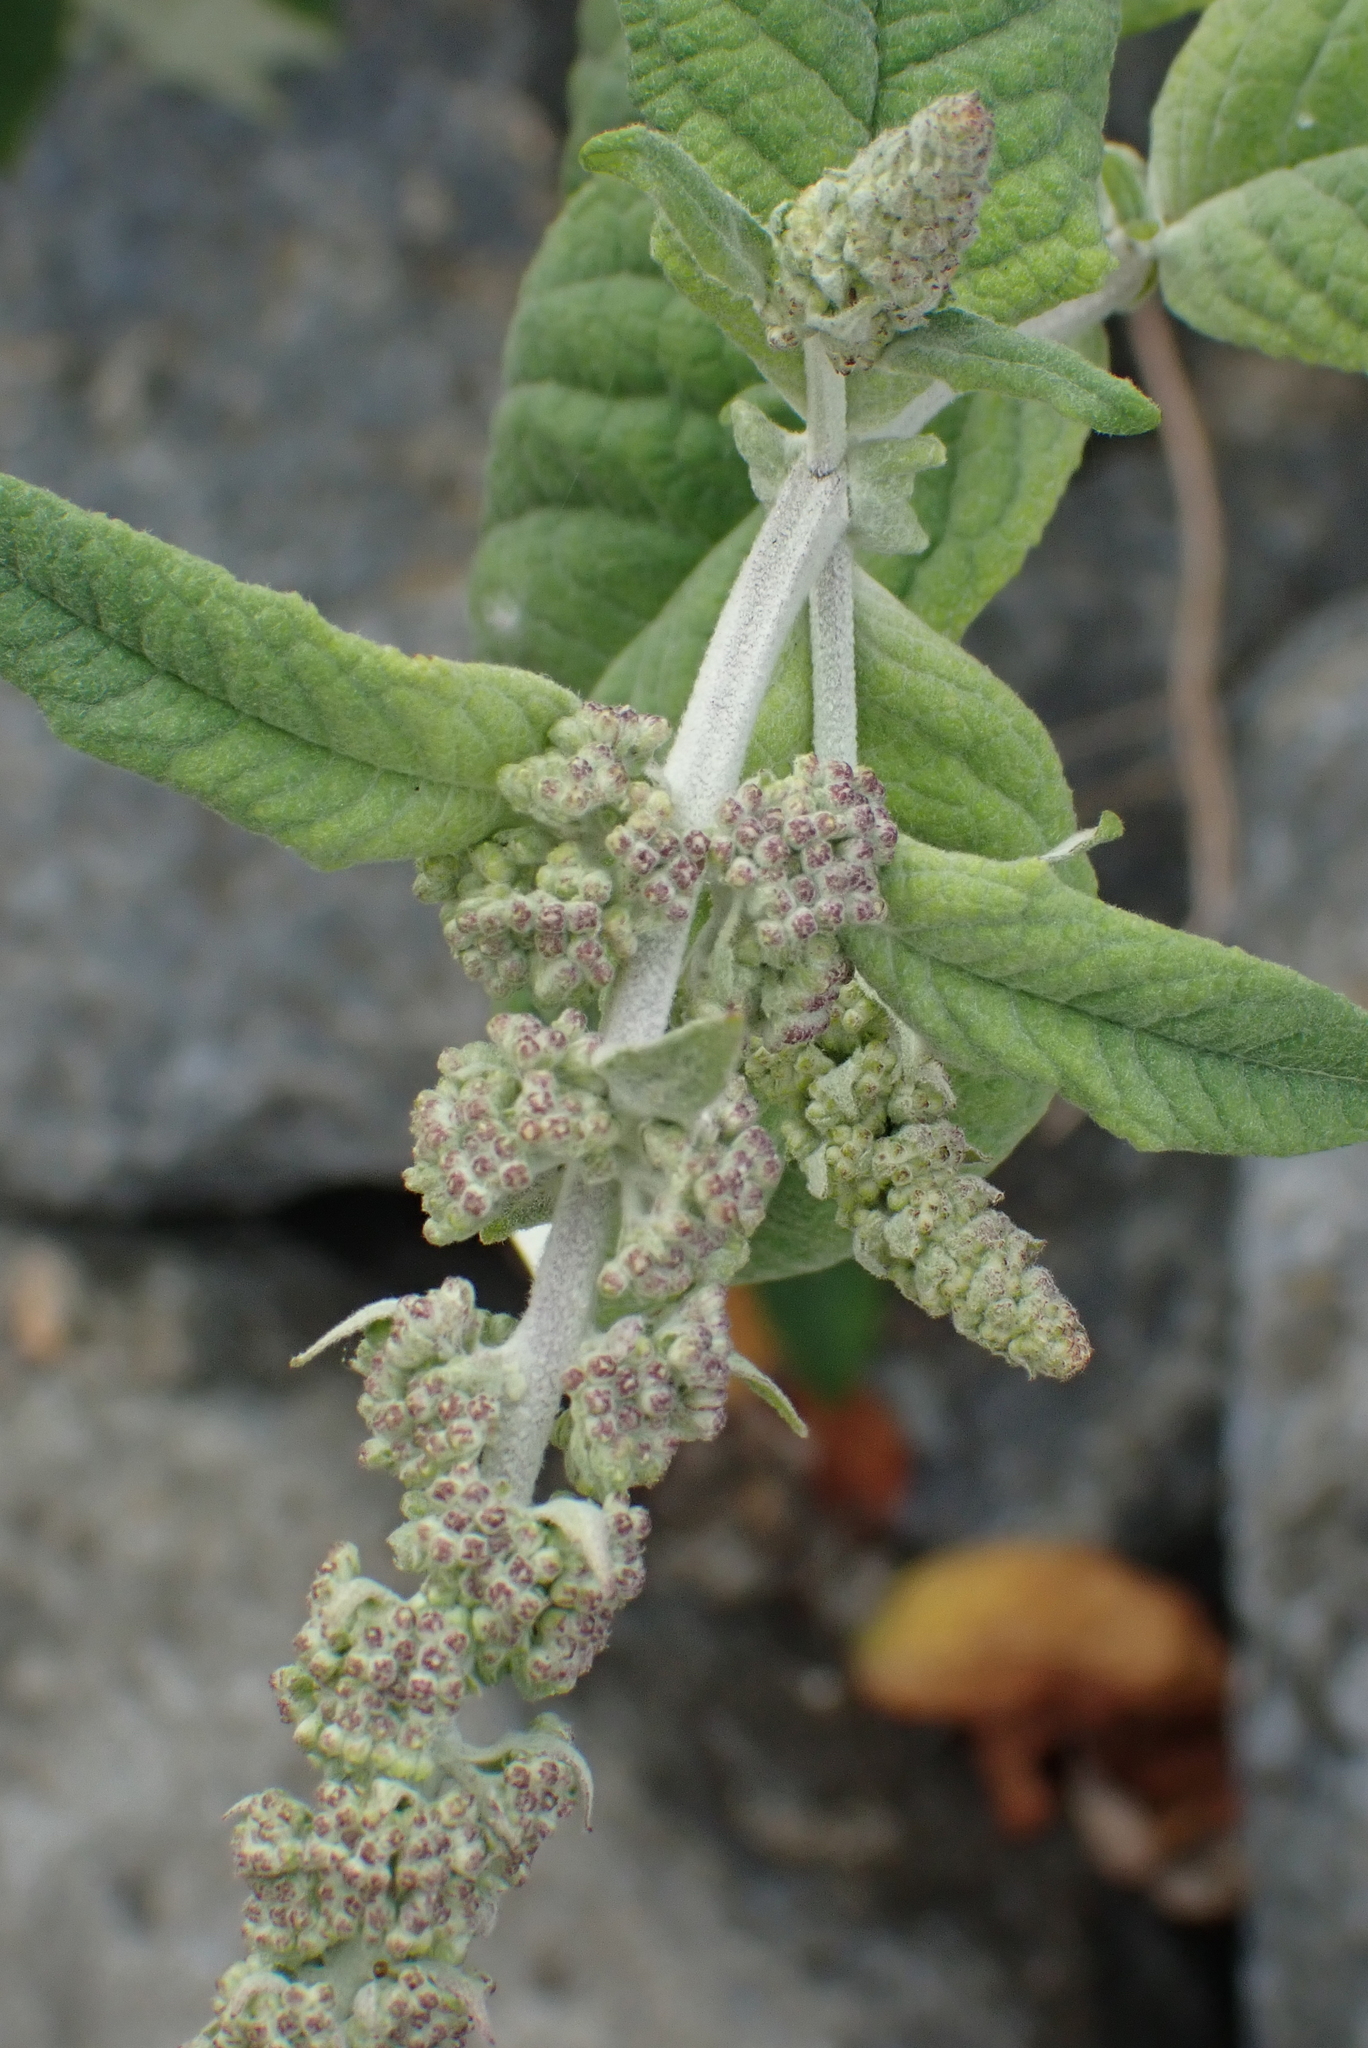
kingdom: Plantae
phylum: Tracheophyta
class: Magnoliopsida
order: Lamiales
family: Scrophulariaceae
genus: Buddleja
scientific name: Buddleja davidii
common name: Butterfly-bush
